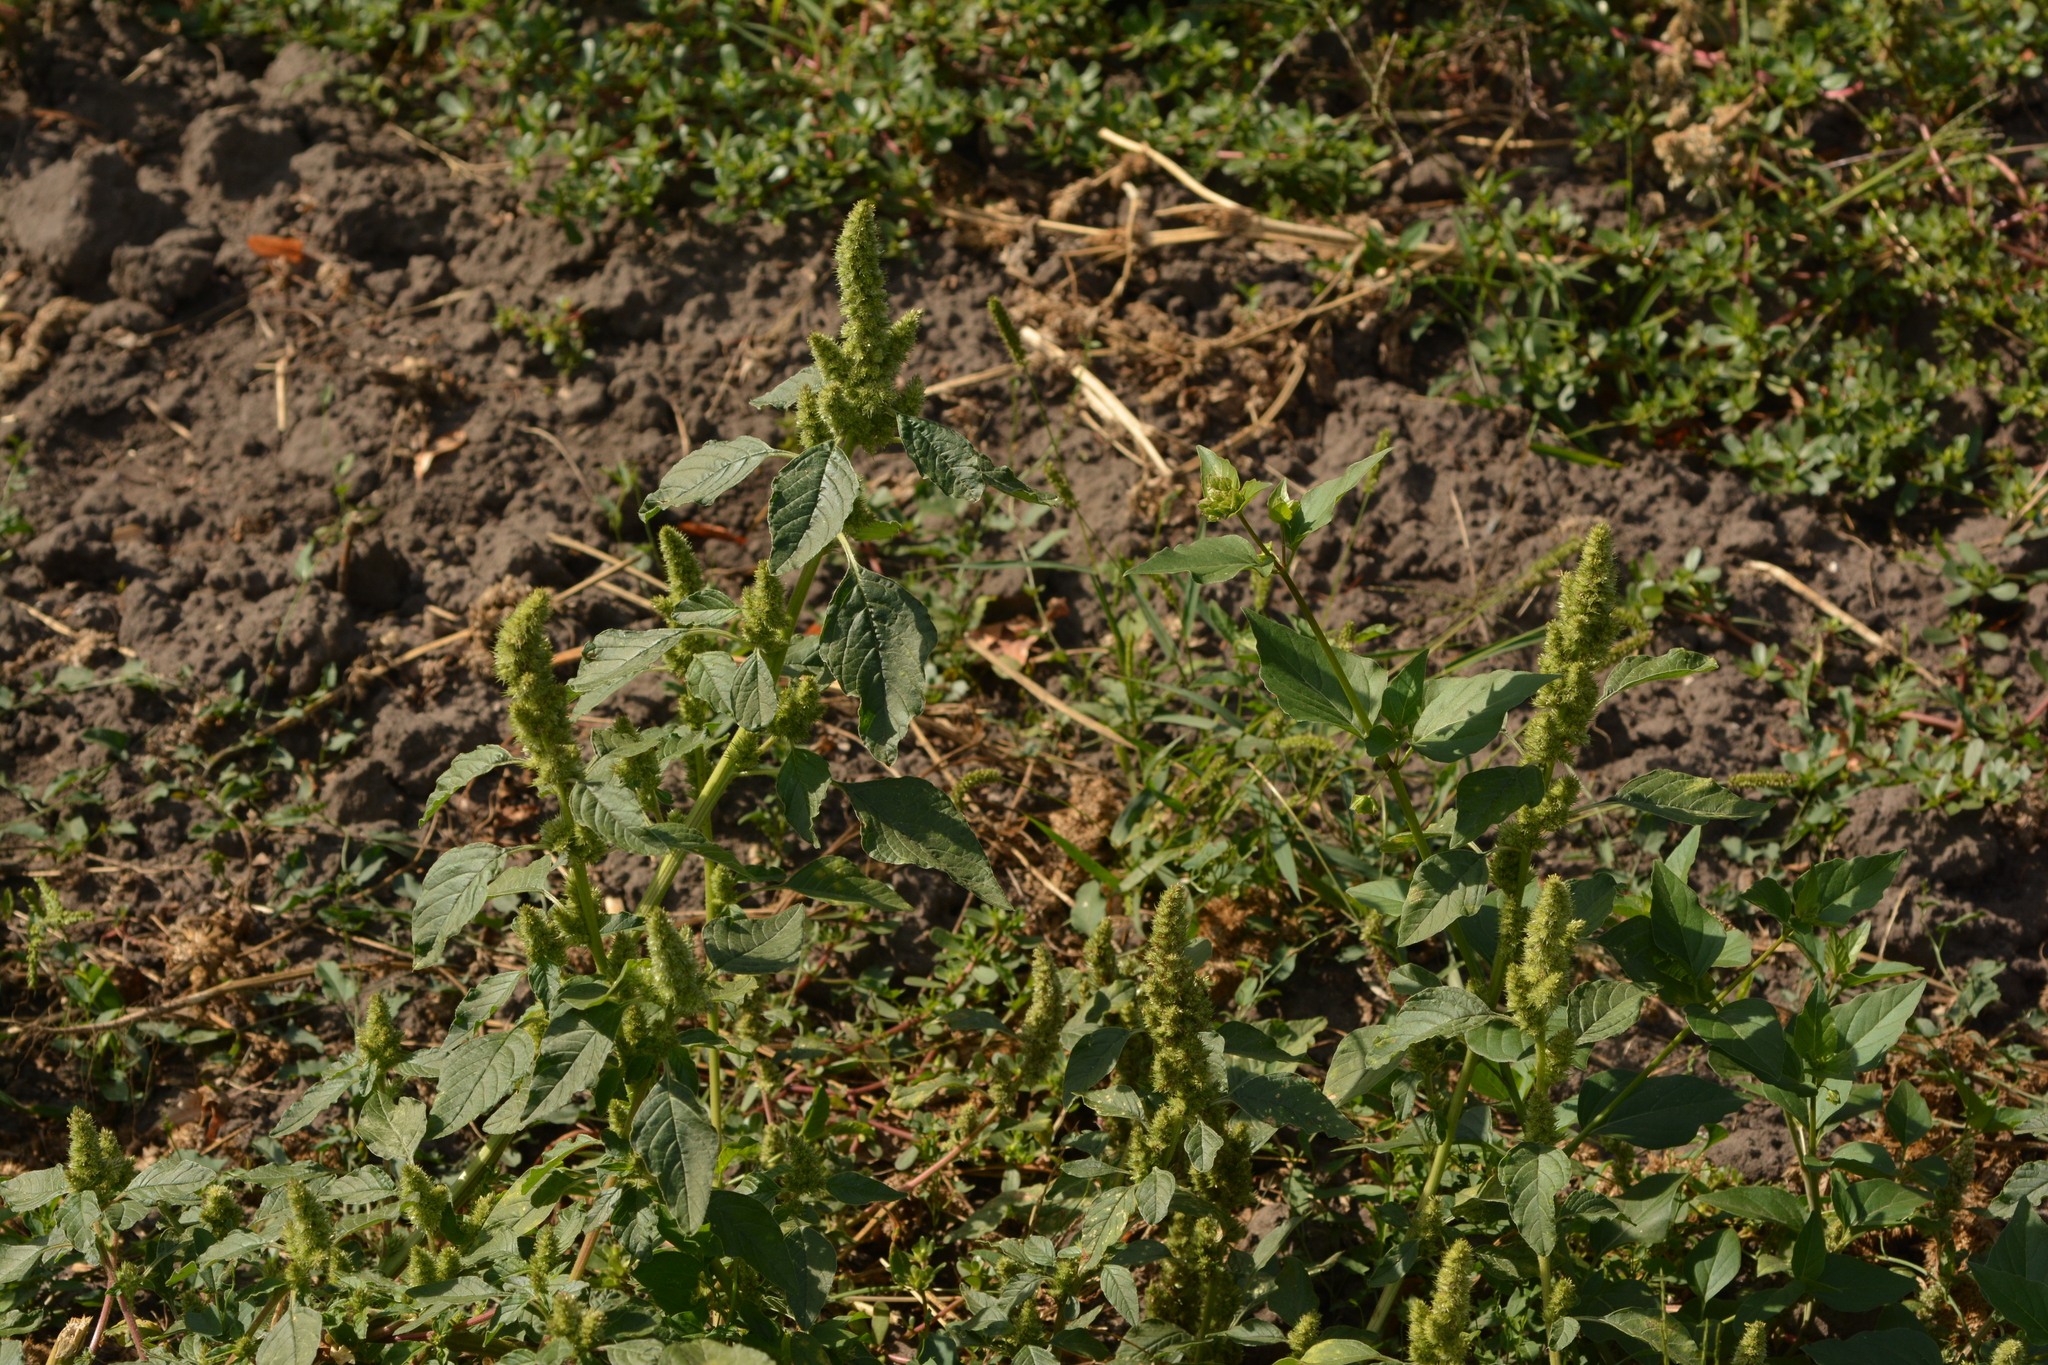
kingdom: Plantae
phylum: Tracheophyta
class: Magnoliopsida
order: Caryophyllales
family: Amaranthaceae
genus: Amaranthus
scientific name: Amaranthus retroflexus
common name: Redroot amaranth
